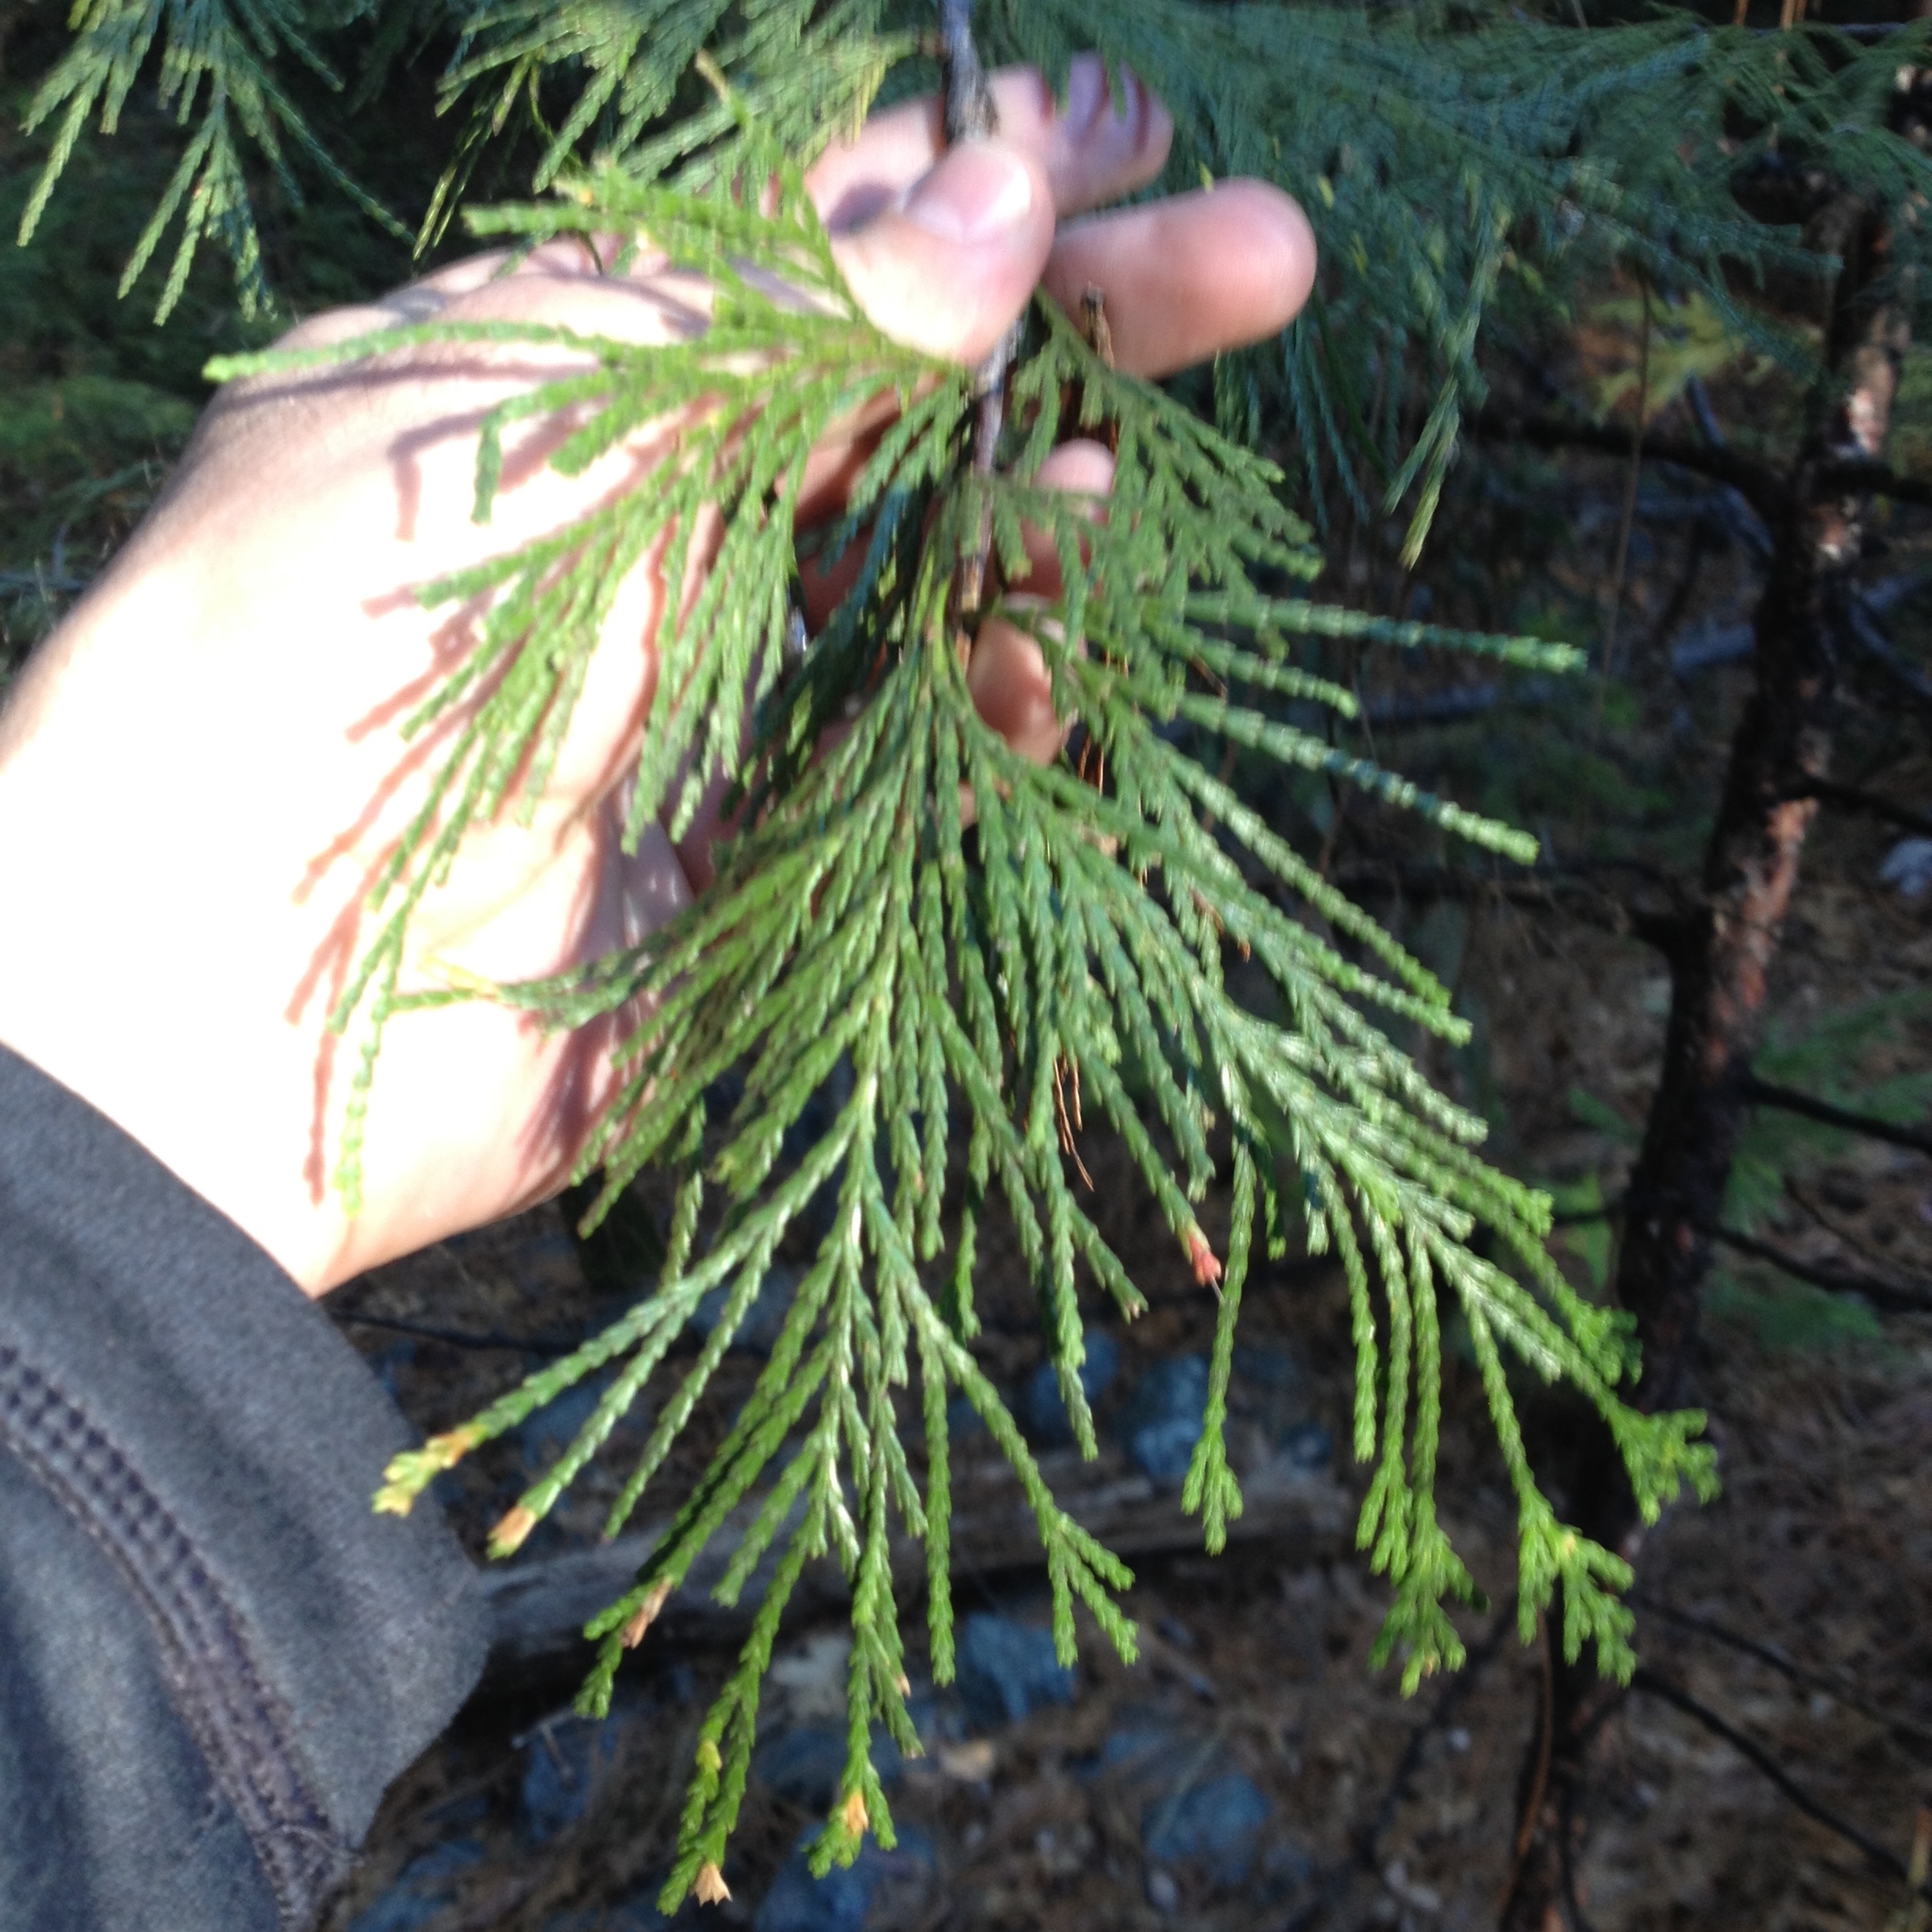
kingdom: Plantae
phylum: Tracheophyta
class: Pinopsida
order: Pinales
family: Cupressaceae
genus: Calocedrus
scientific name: Calocedrus decurrens
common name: Californian incense-cedar
